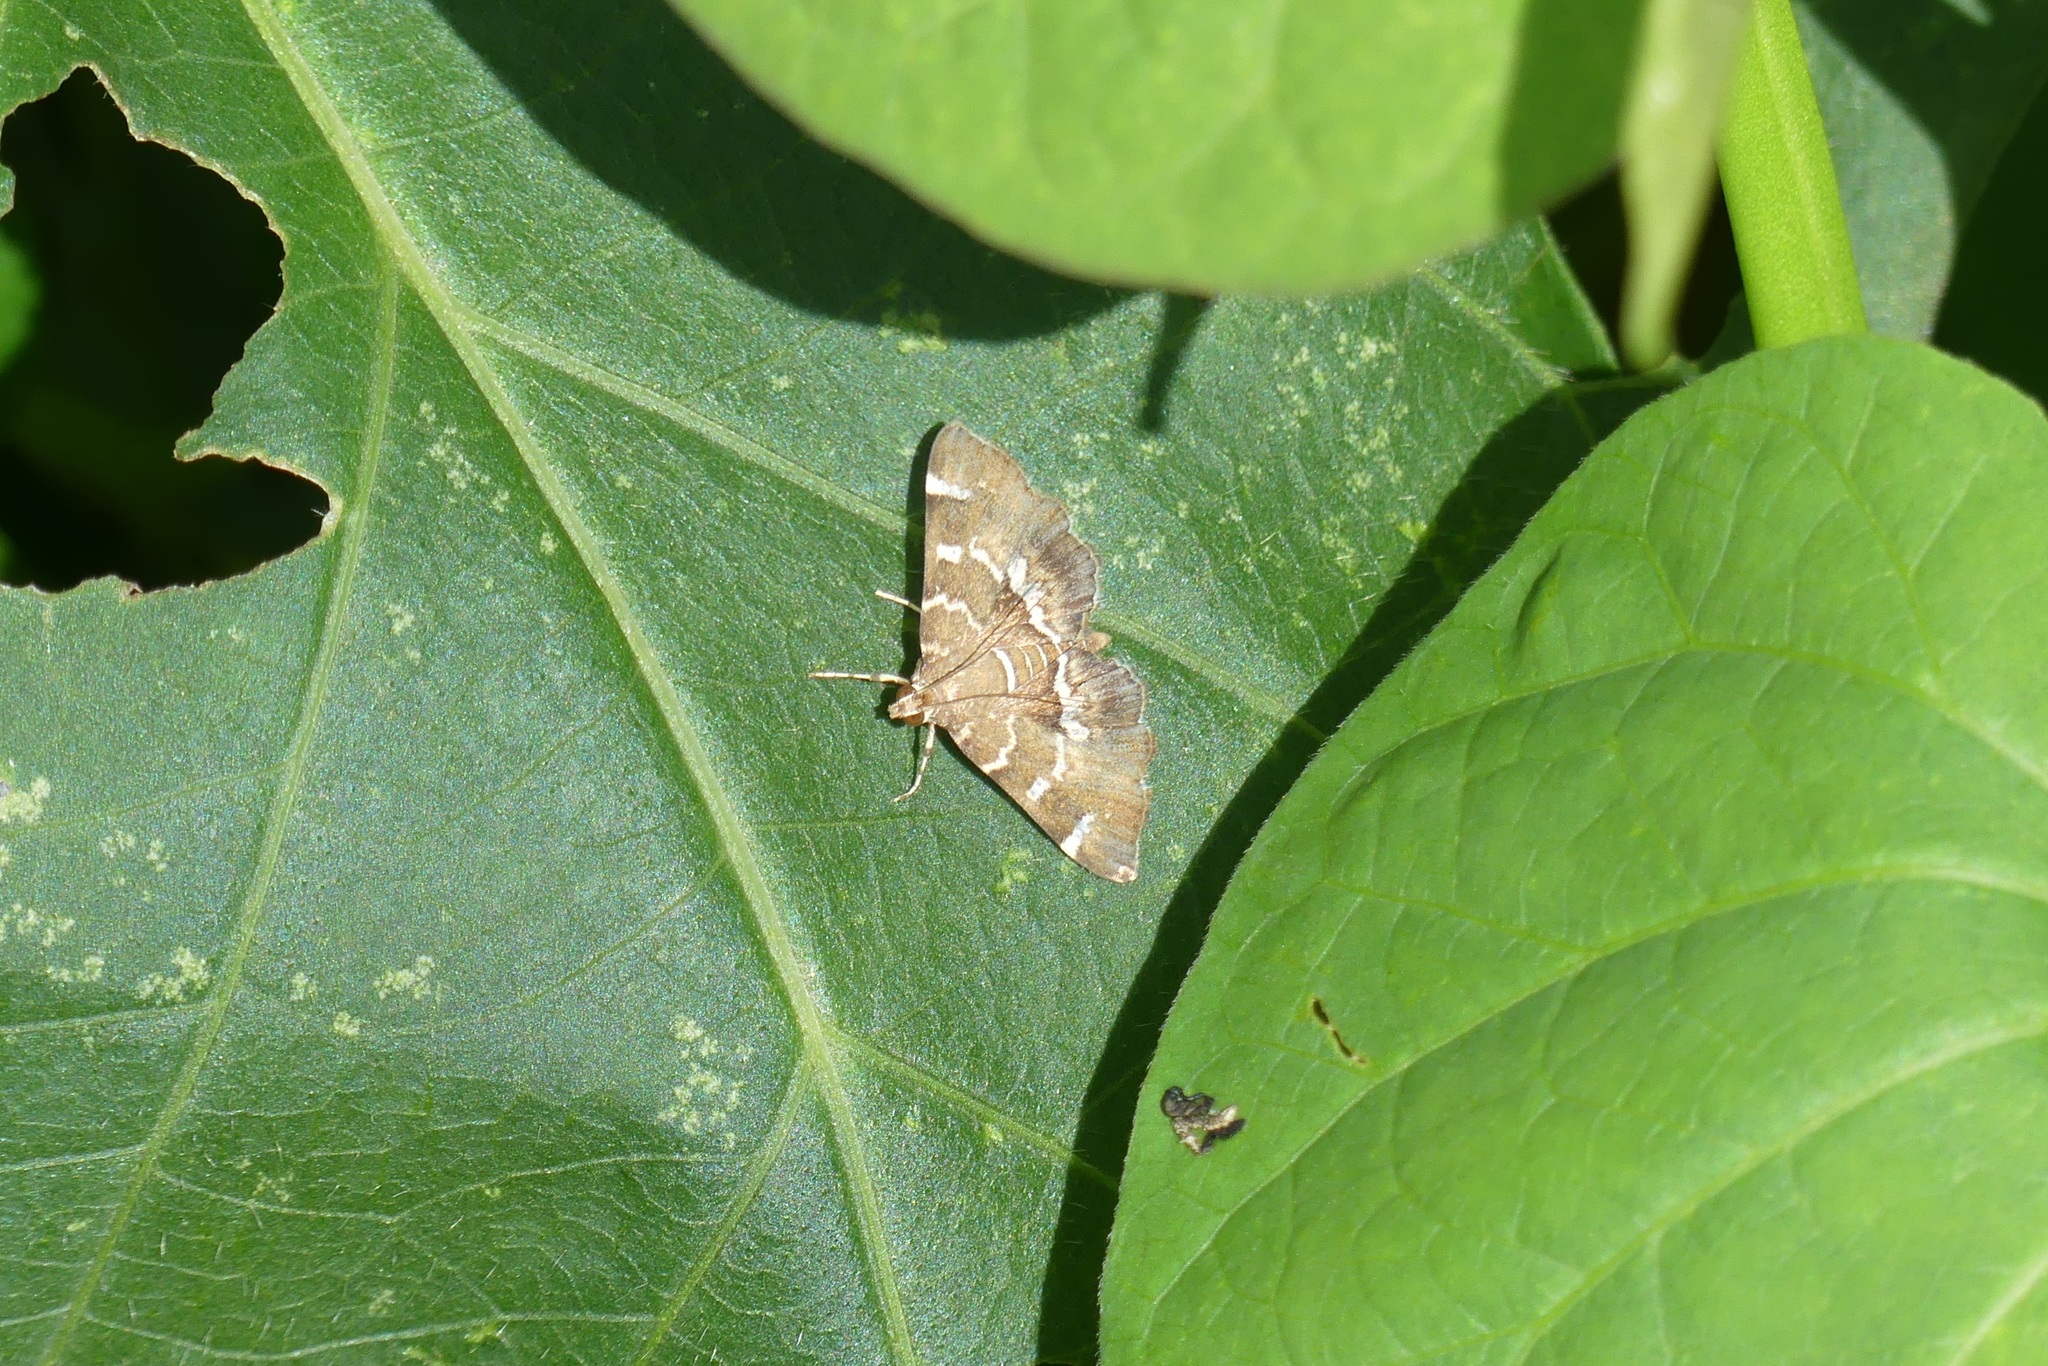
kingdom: Animalia
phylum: Arthropoda
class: Insecta
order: Lepidoptera
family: Crambidae
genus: Hymenia
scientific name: Hymenia perspectalis
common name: Spotted beet webworm
